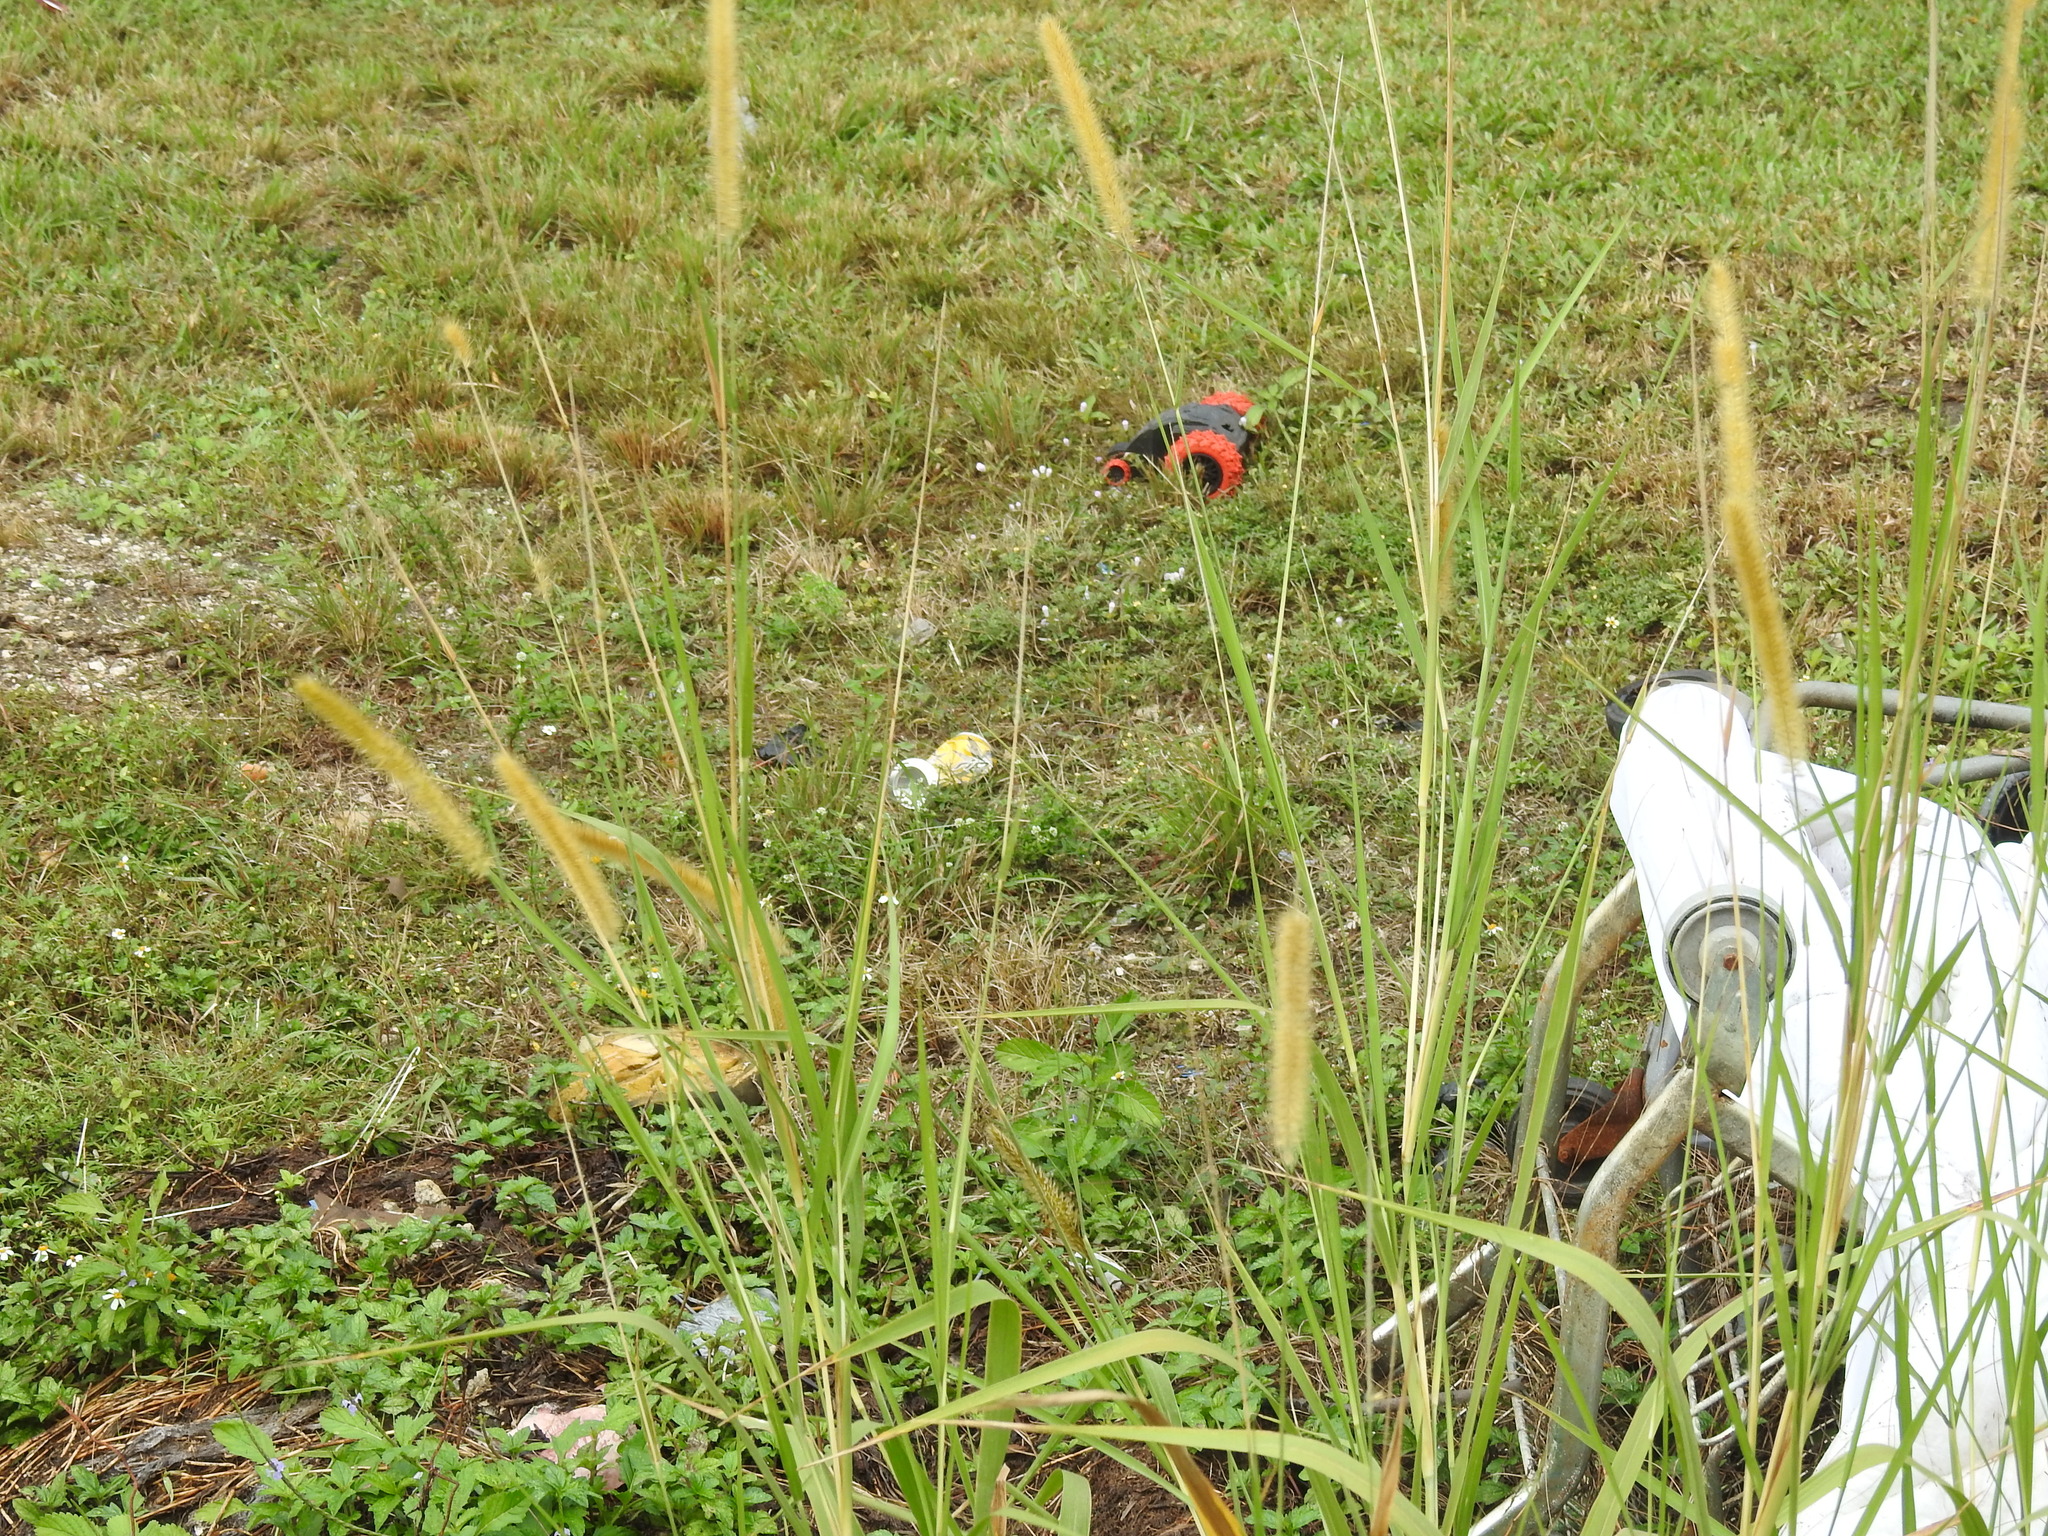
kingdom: Plantae
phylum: Tracheophyta
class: Liliopsida
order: Poales
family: Poaceae
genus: Cenchrus
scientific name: Cenchrus purpureus
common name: Elephant grass
